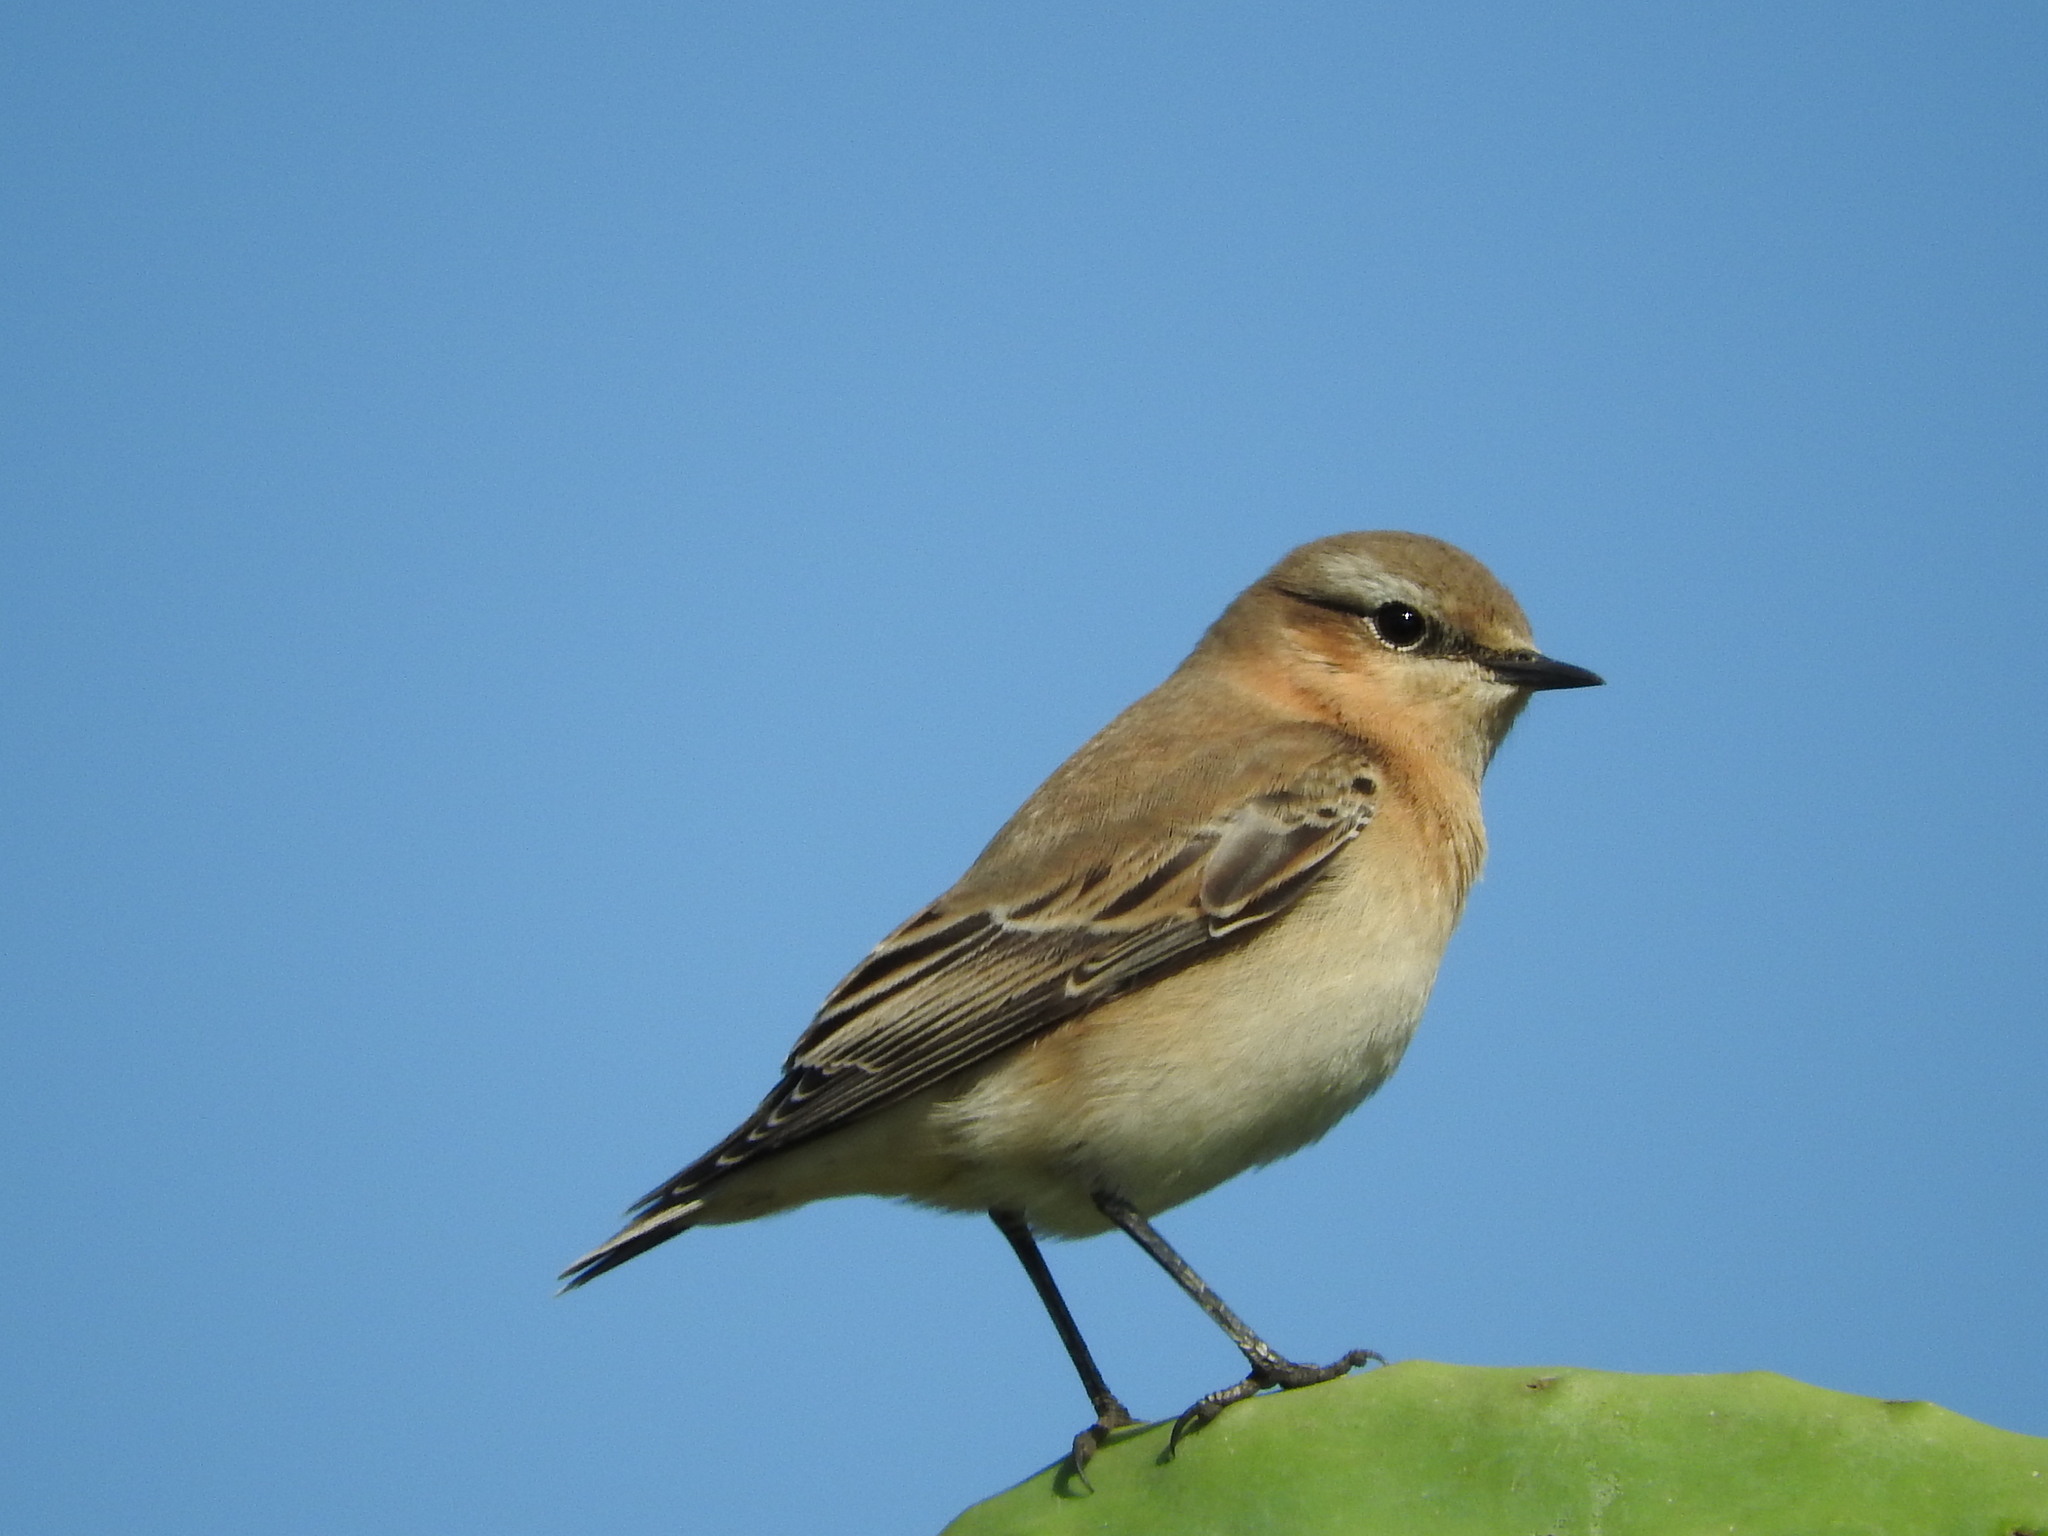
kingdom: Animalia
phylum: Chordata
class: Aves
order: Passeriformes
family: Muscicapidae
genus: Oenanthe
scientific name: Oenanthe oenanthe
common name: Northern wheatear
